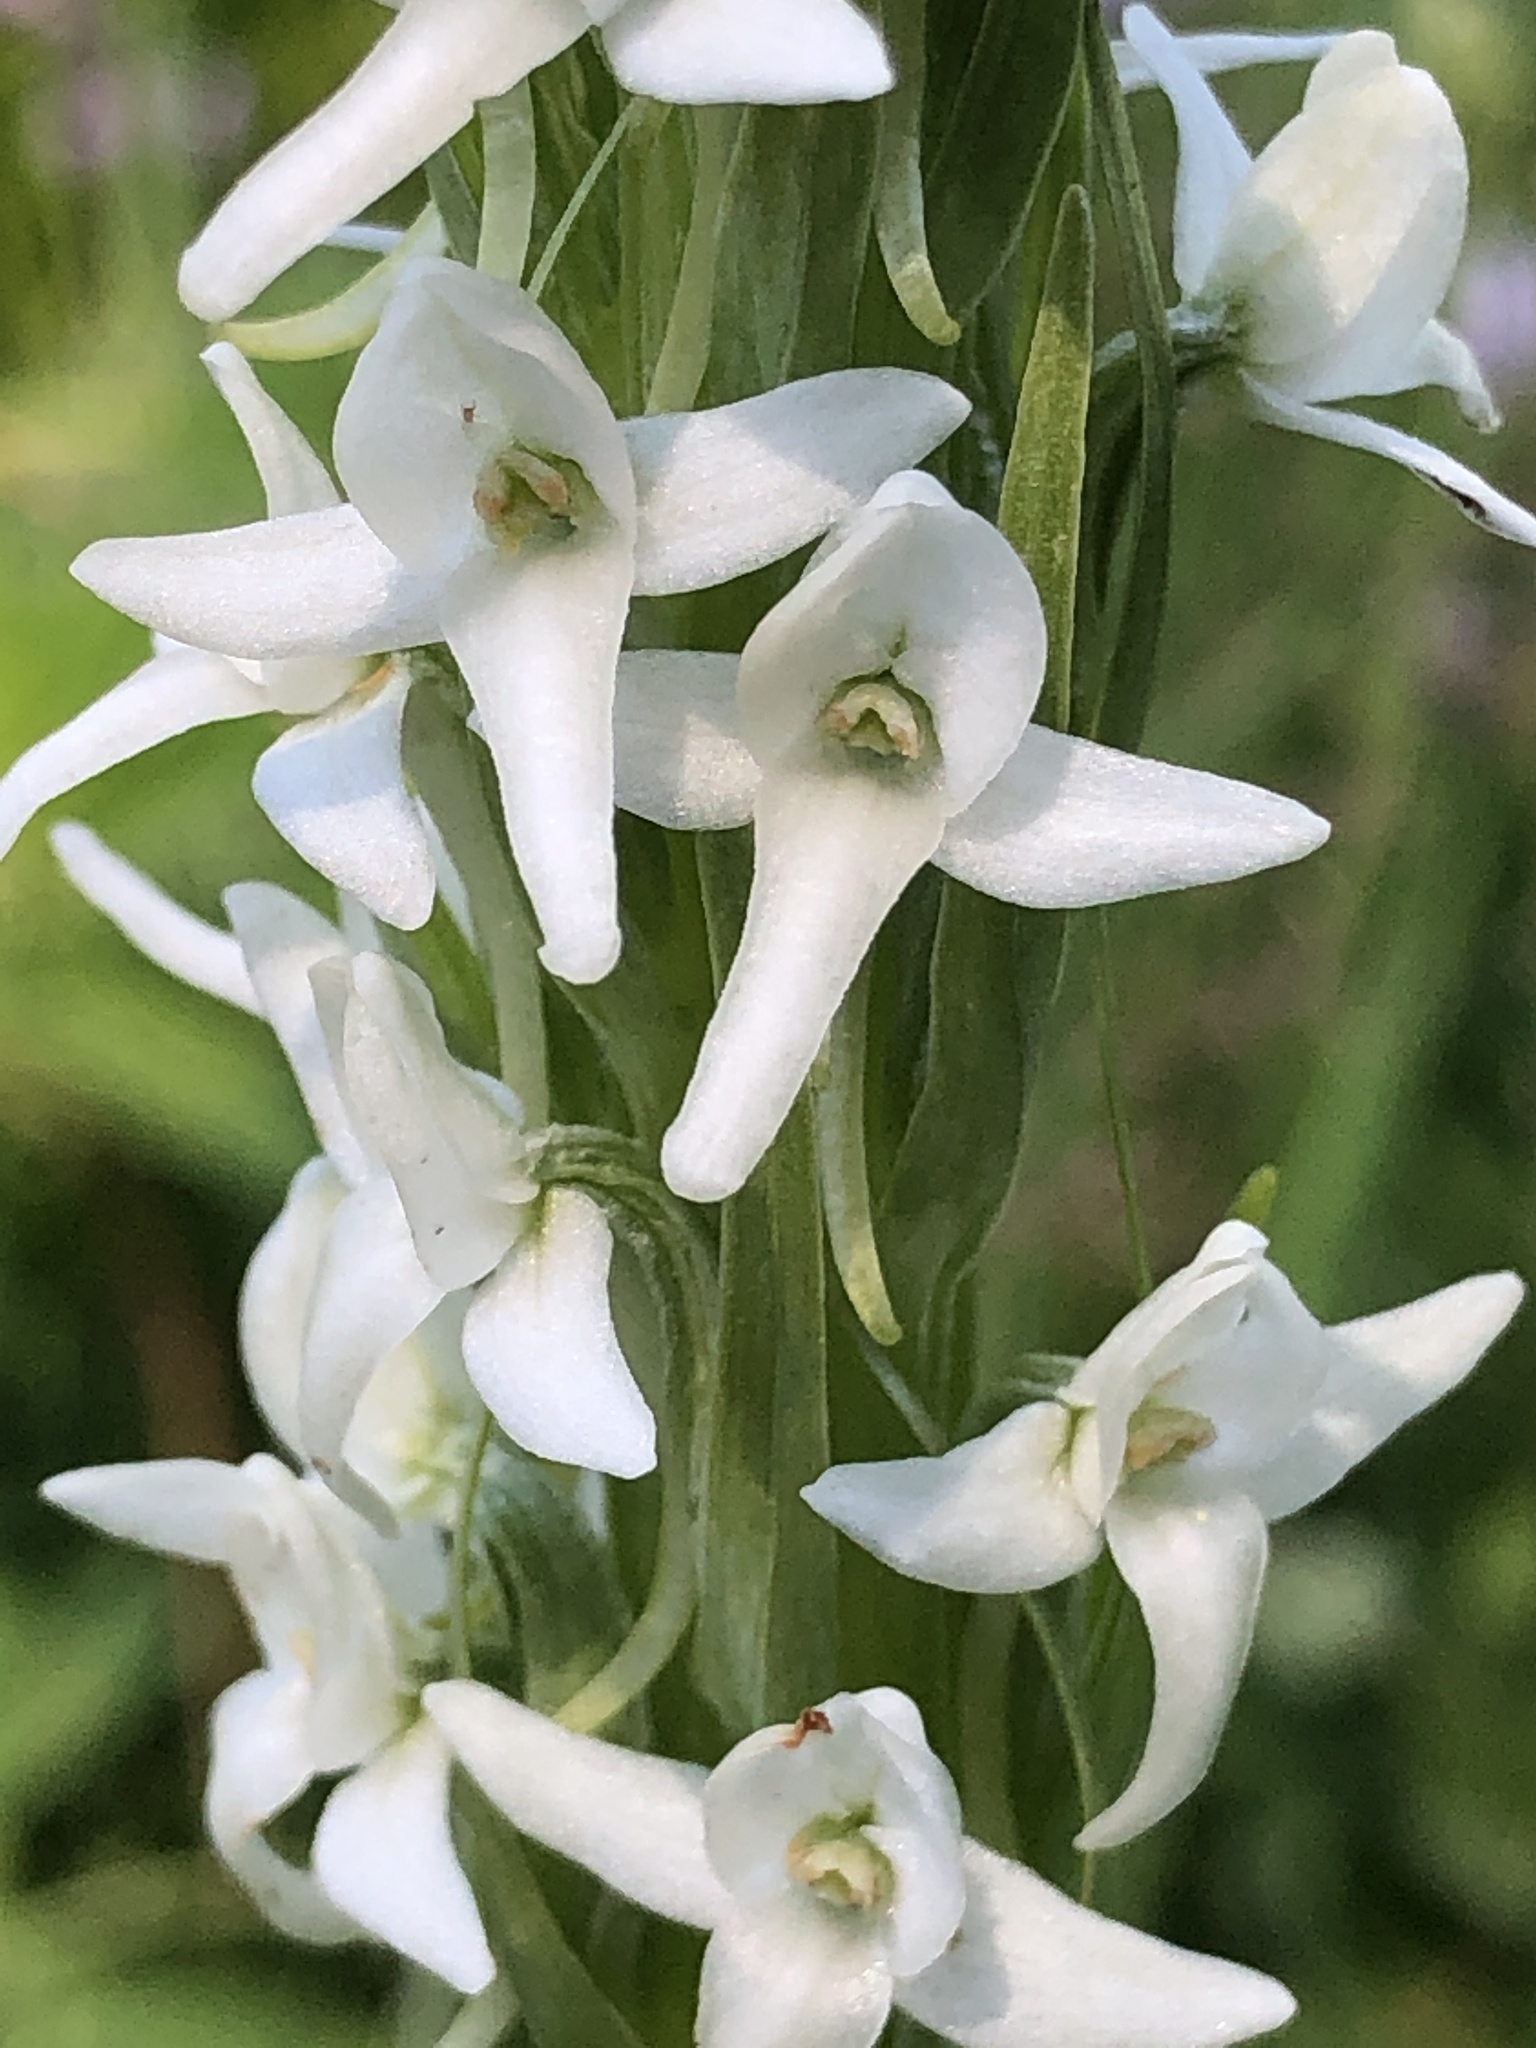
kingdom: Plantae
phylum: Tracheophyta
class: Liliopsida
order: Asparagales
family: Orchidaceae
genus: Platanthera
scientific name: Platanthera dilatata
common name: Bog candles
